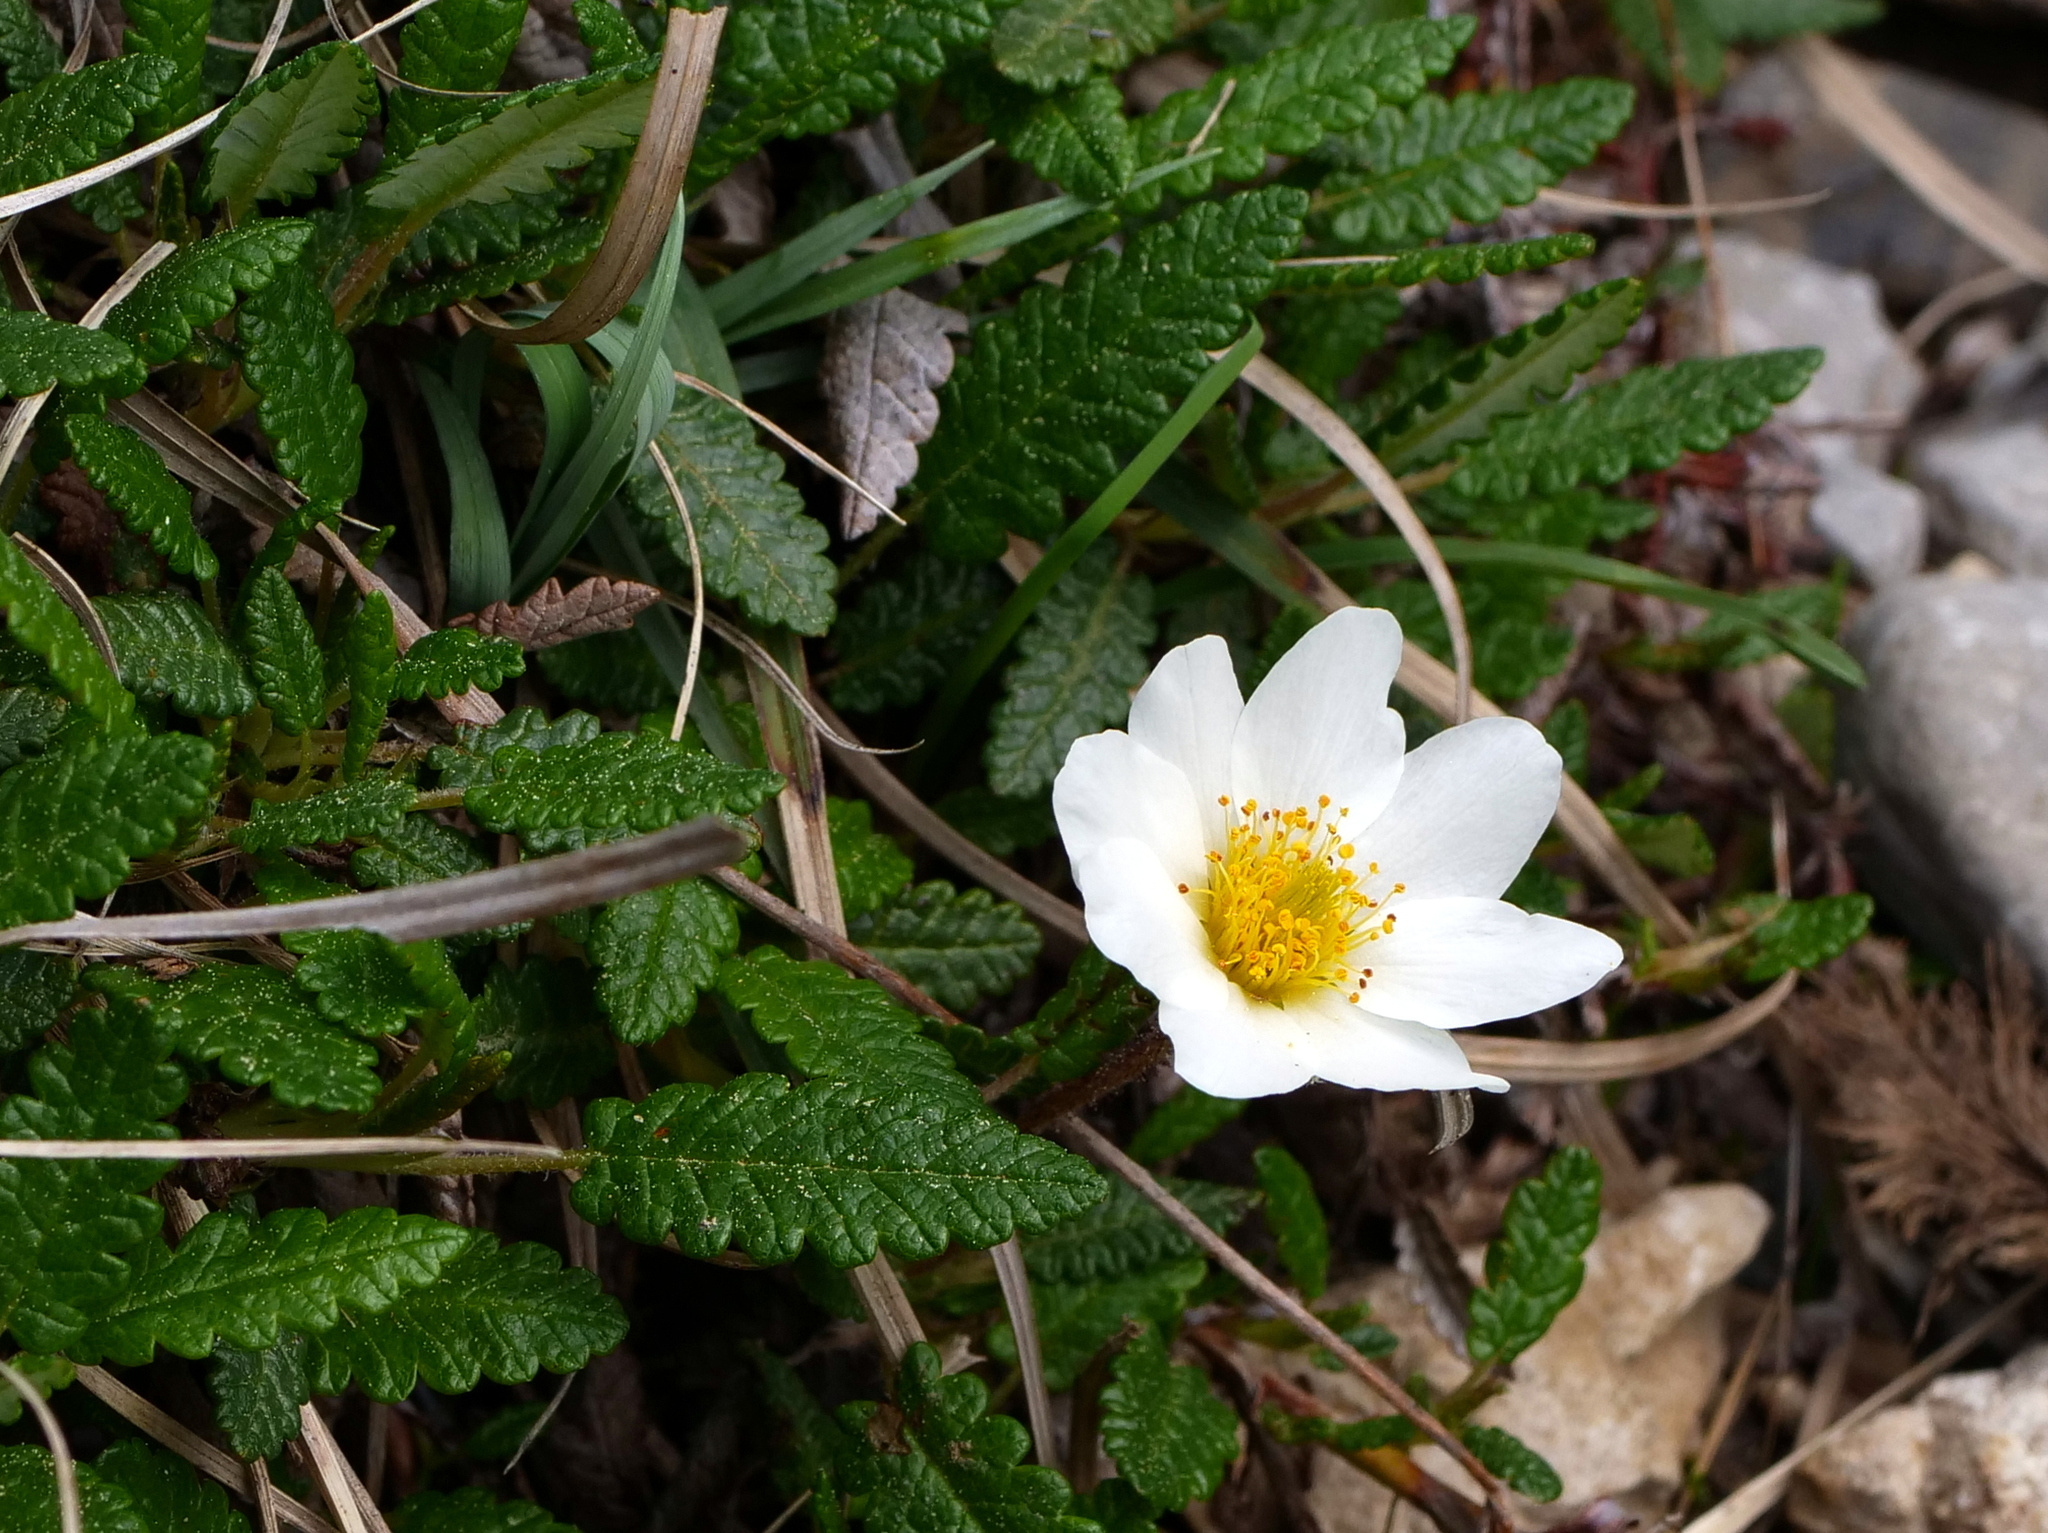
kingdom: Plantae
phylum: Tracheophyta
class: Magnoliopsida
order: Rosales
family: Rosaceae
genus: Dryas
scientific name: Dryas octopetala
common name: Eight-petal mountain-avens
